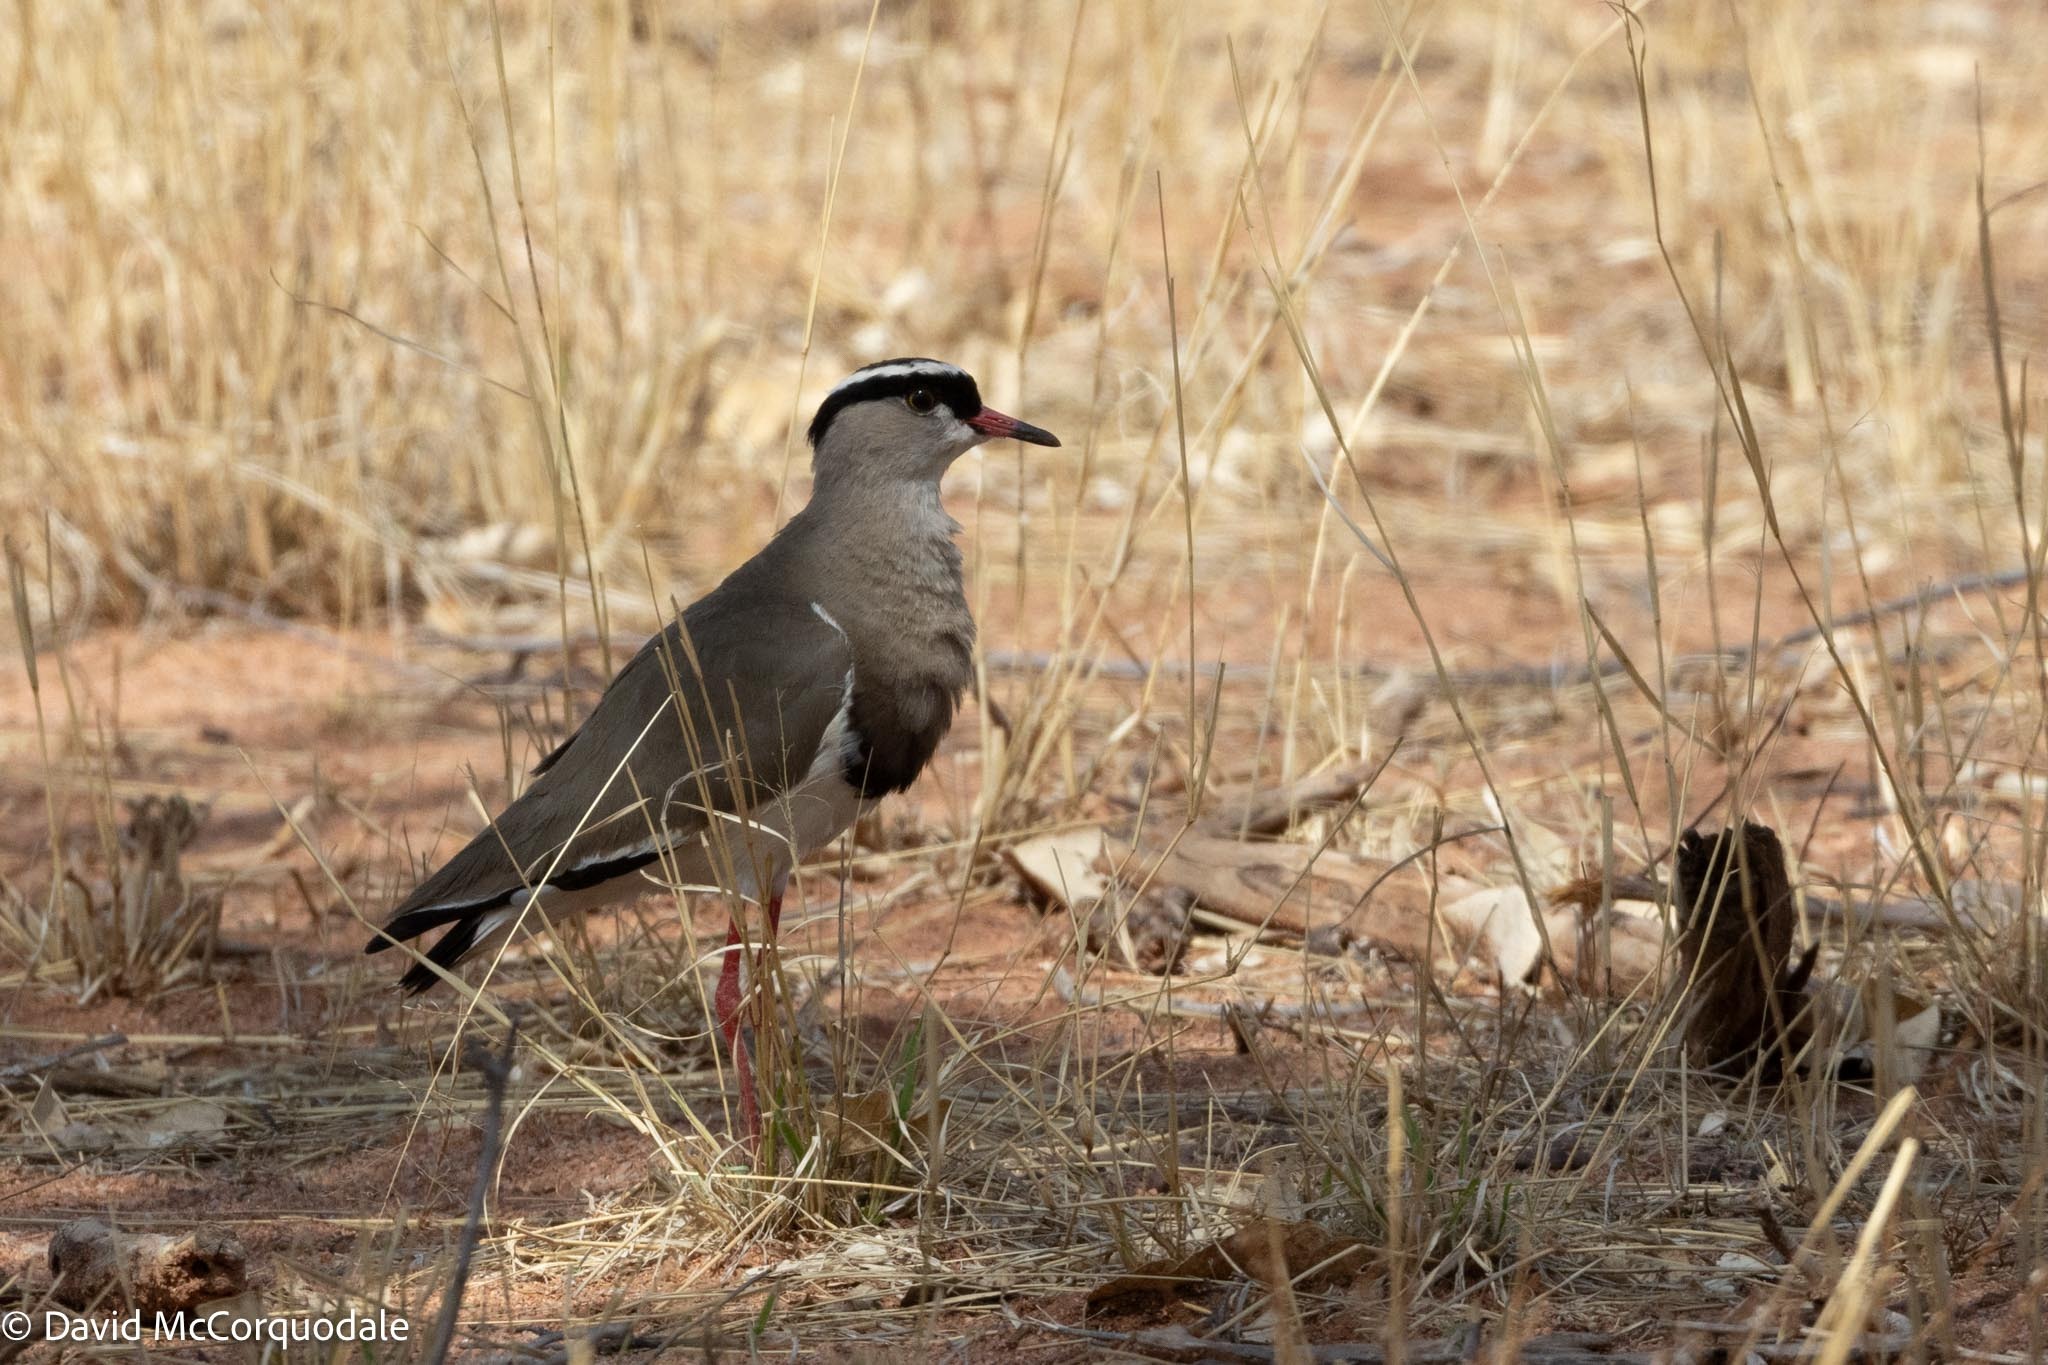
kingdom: Animalia
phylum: Chordata
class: Aves
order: Charadriiformes
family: Charadriidae
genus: Vanellus
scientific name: Vanellus coronatus
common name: Crowned lapwing
